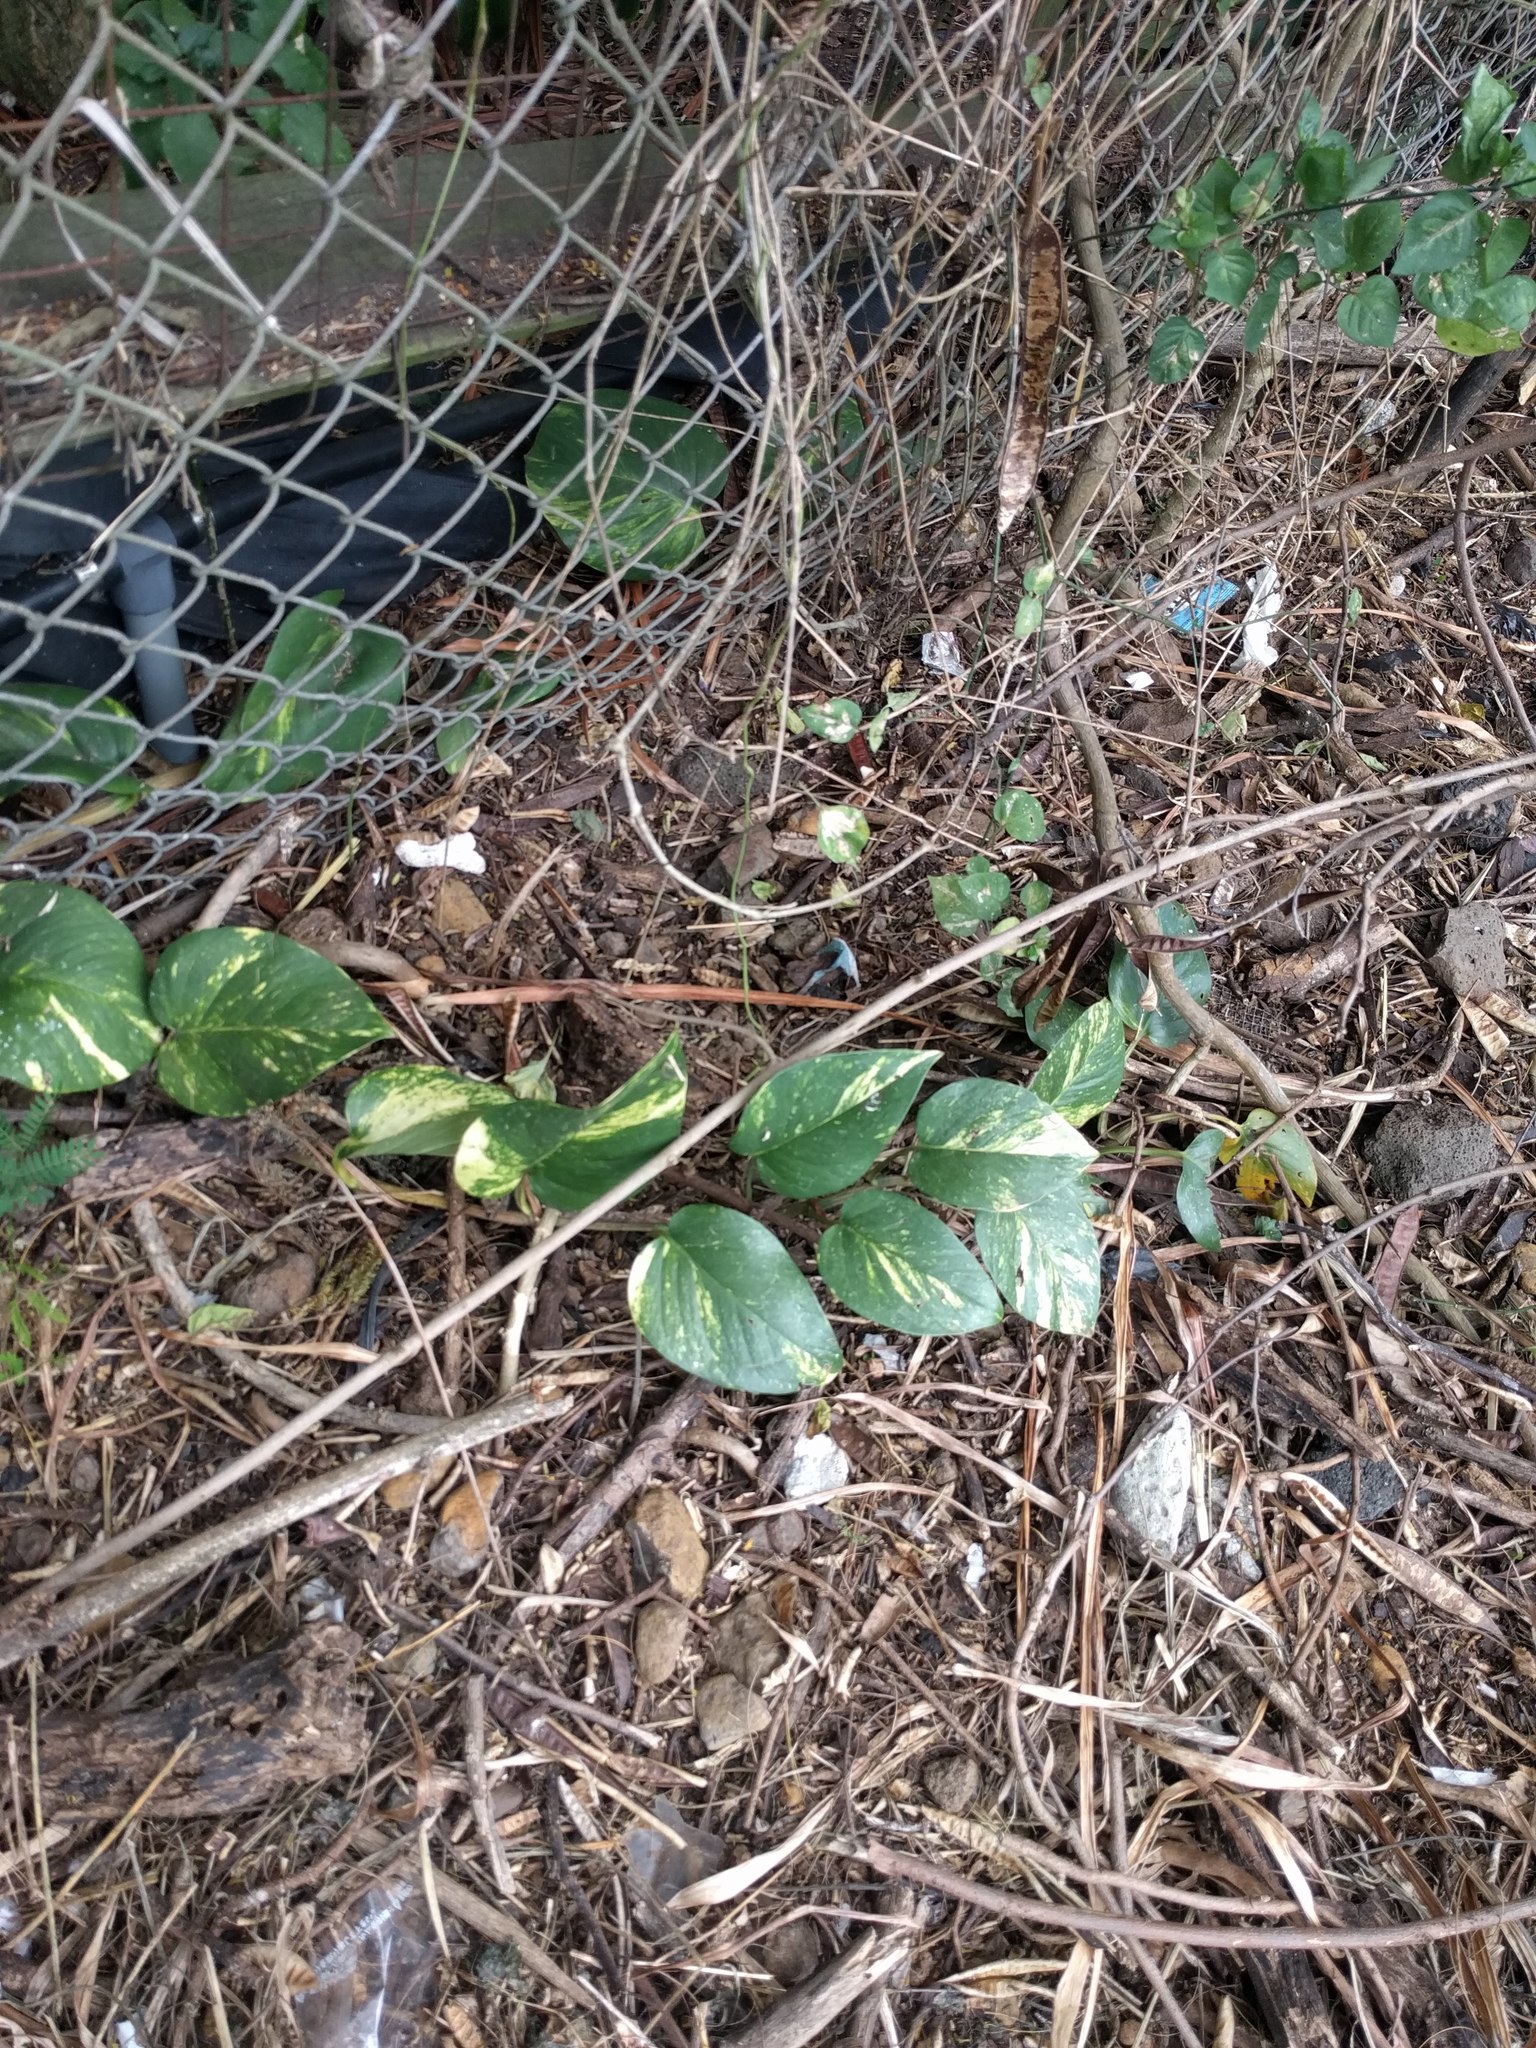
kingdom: Plantae
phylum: Tracheophyta
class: Liliopsida
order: Alismatales
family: Araceae
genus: Epipremnum
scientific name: Epipremnum aureum
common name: Golden hunter's-robe
